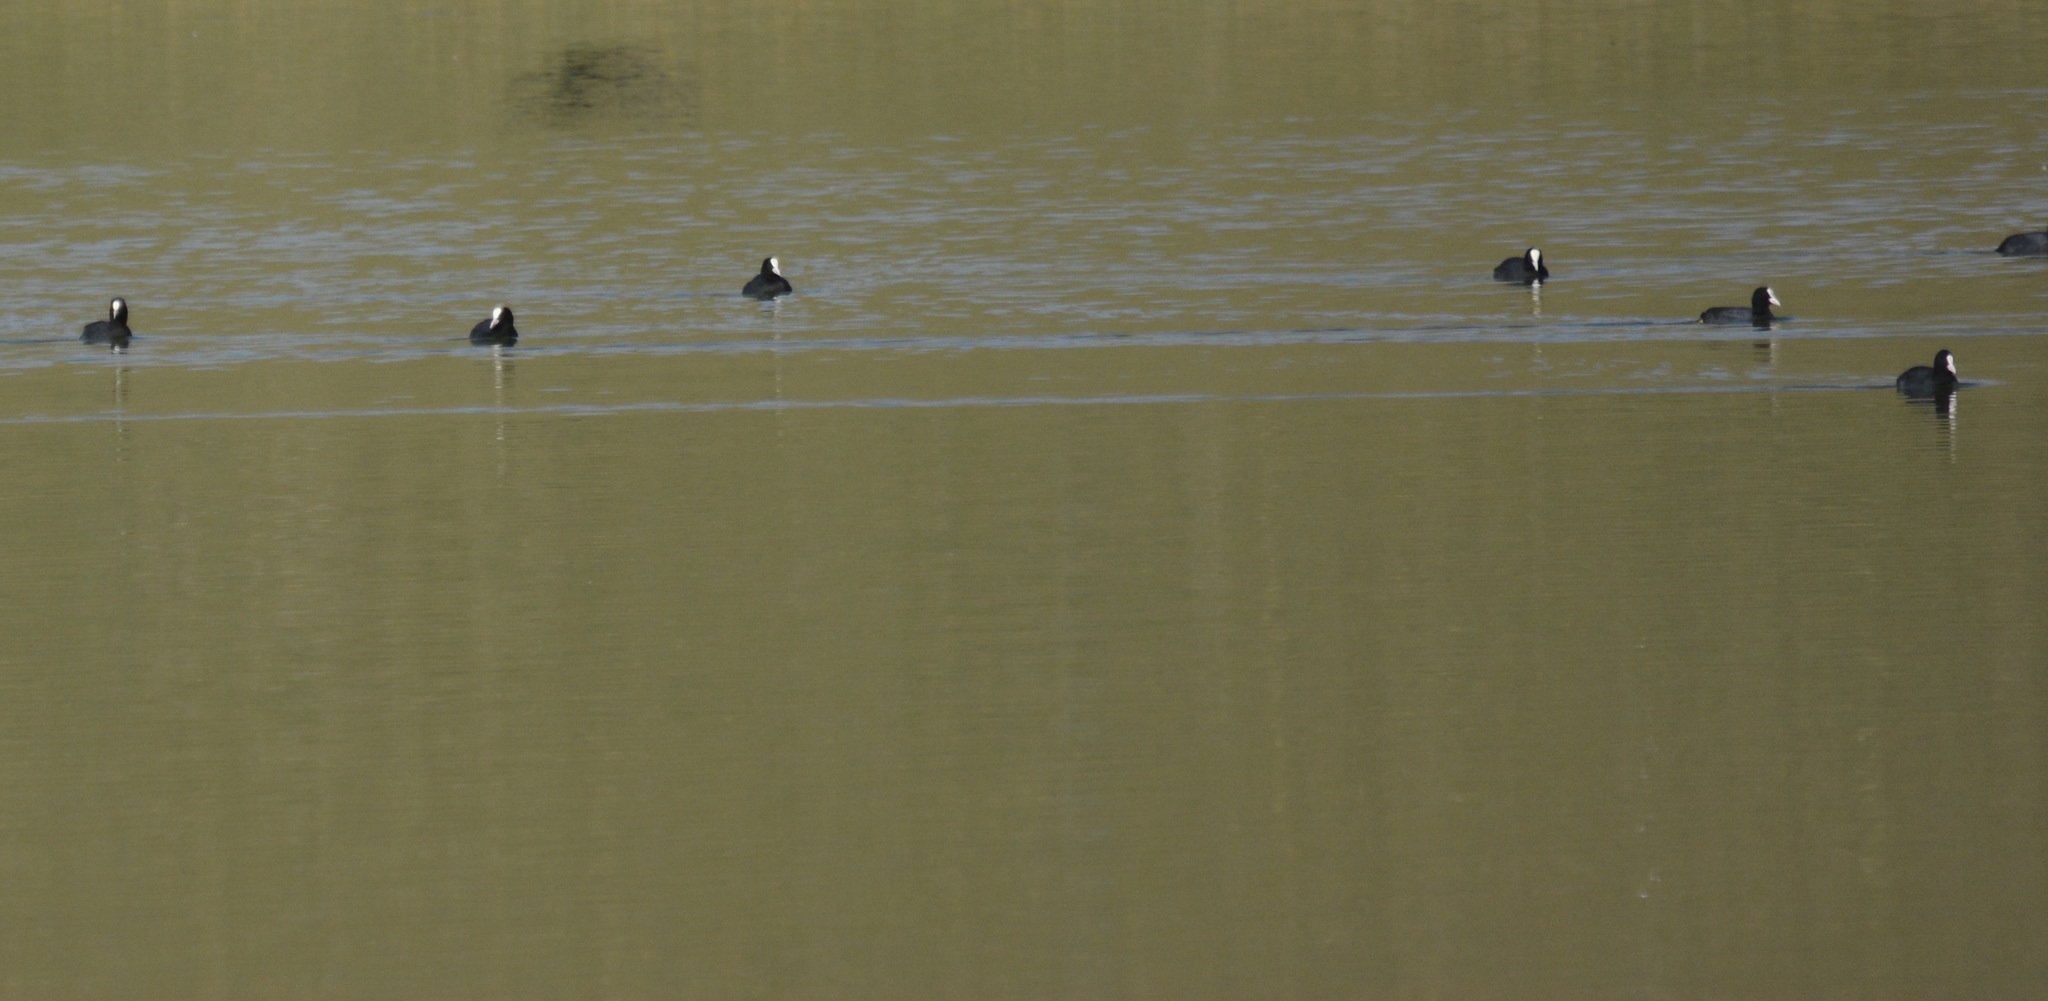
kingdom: Animalia
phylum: Chordata
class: Aves
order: Gruiformes
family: Rallidae
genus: Fulica
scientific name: Fulica atra
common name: Eurasian coot
